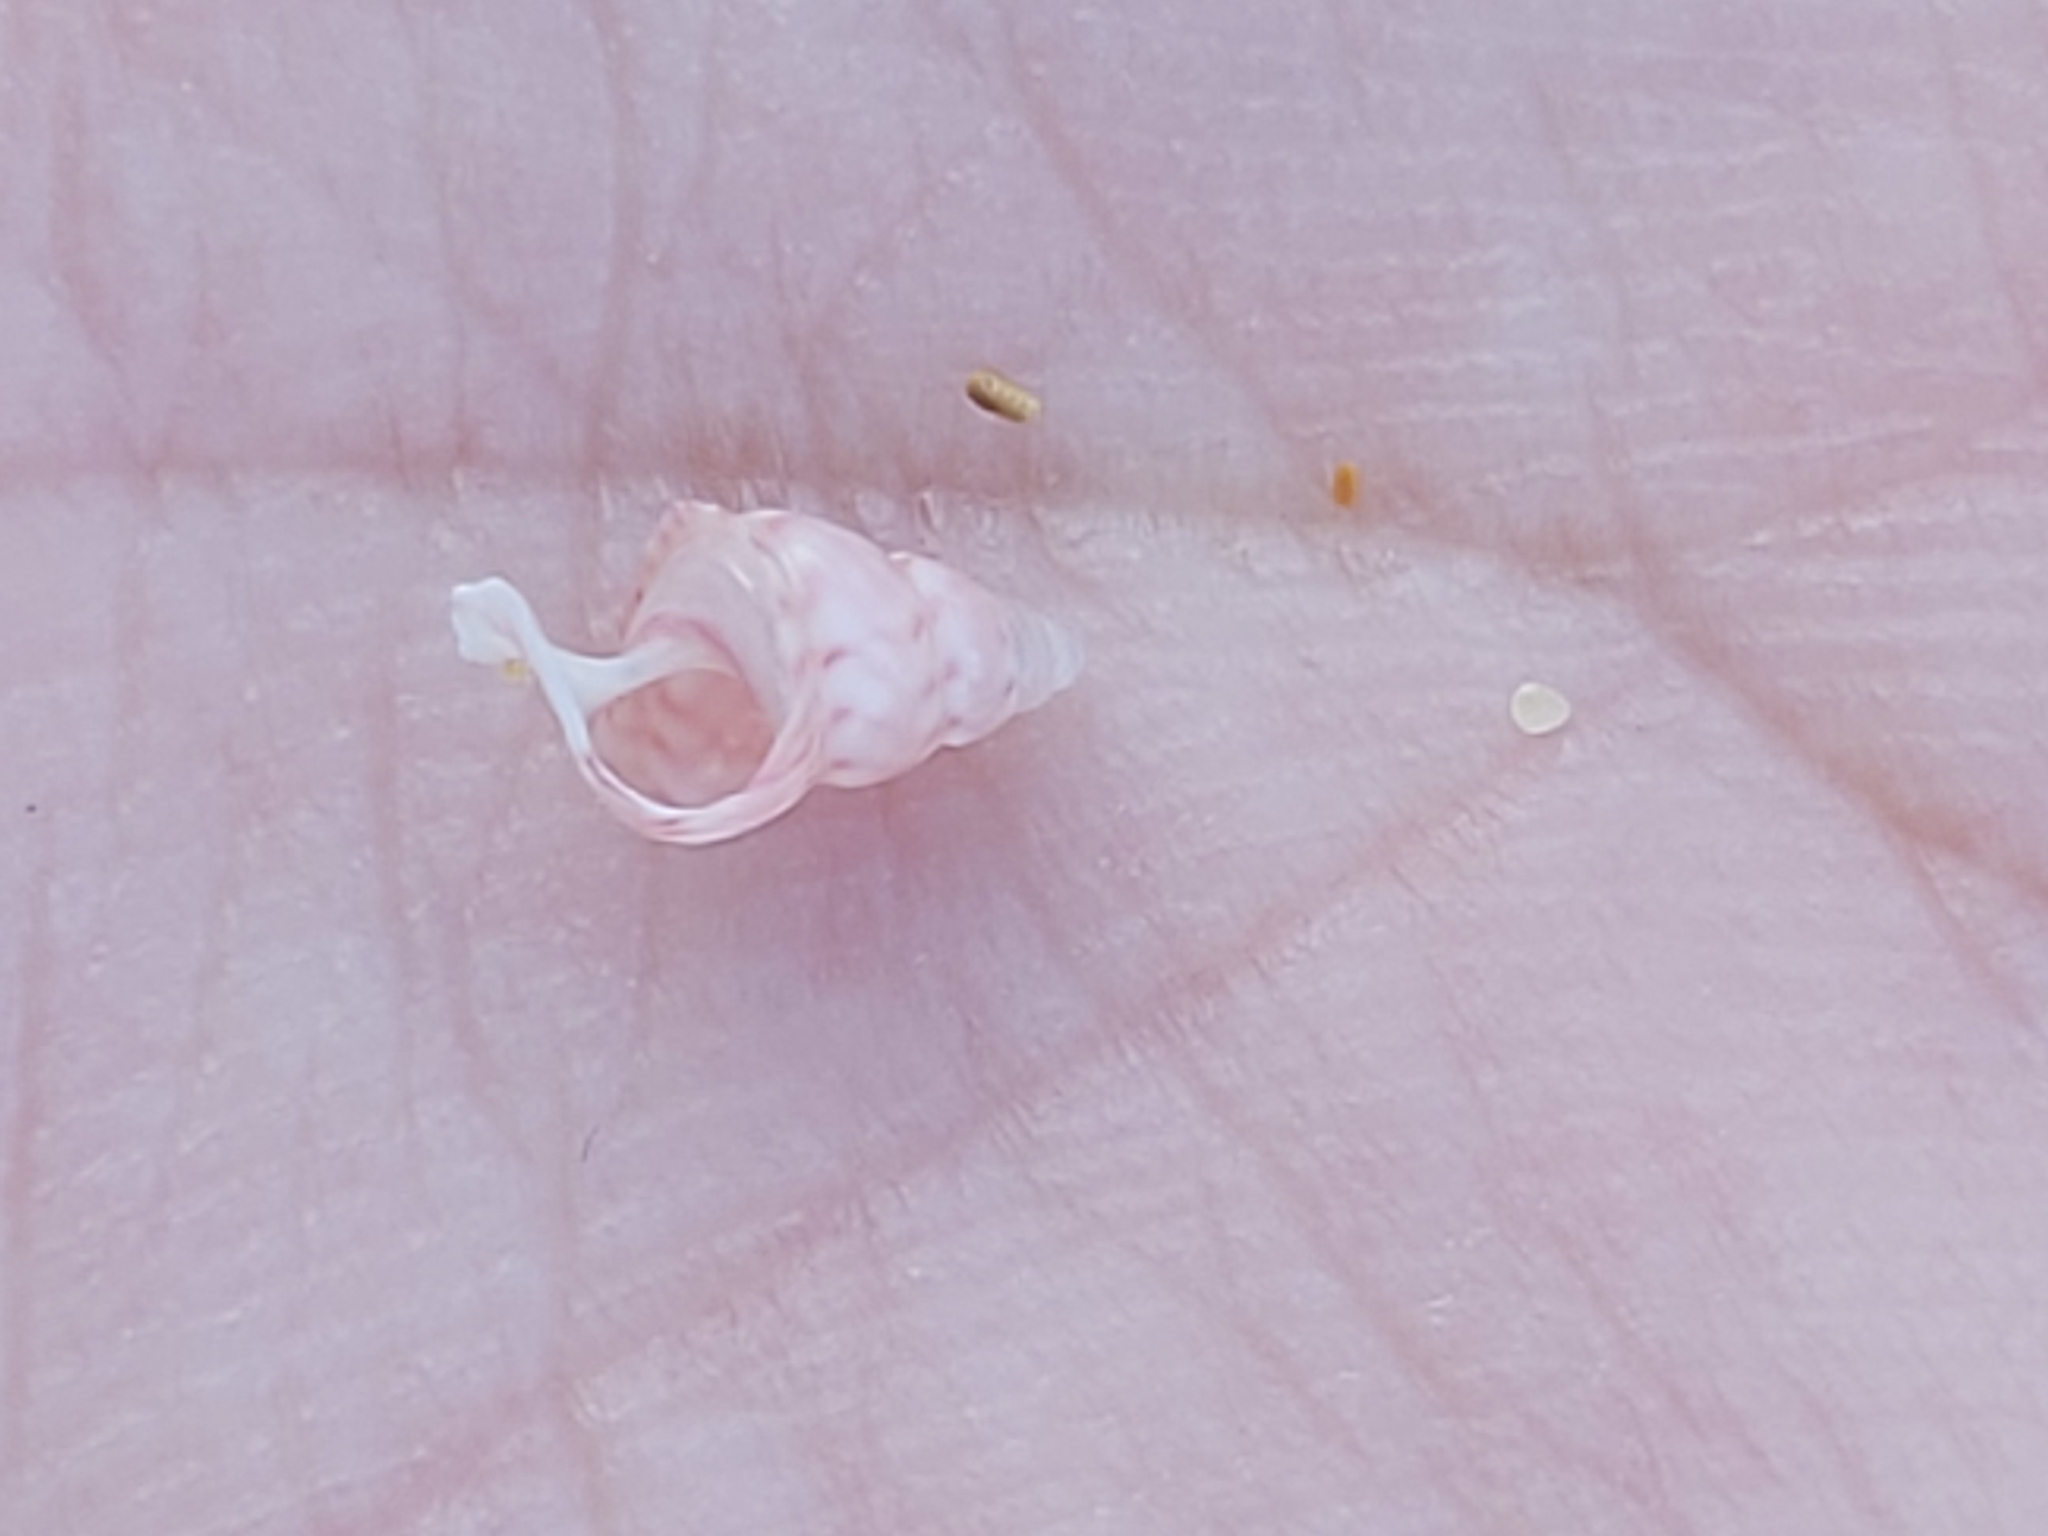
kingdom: Animalia
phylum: Mollusca
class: Gastropoda
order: Trochida
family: Trochidae
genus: Leiopyrga
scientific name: Leiopyrga lineolaris
